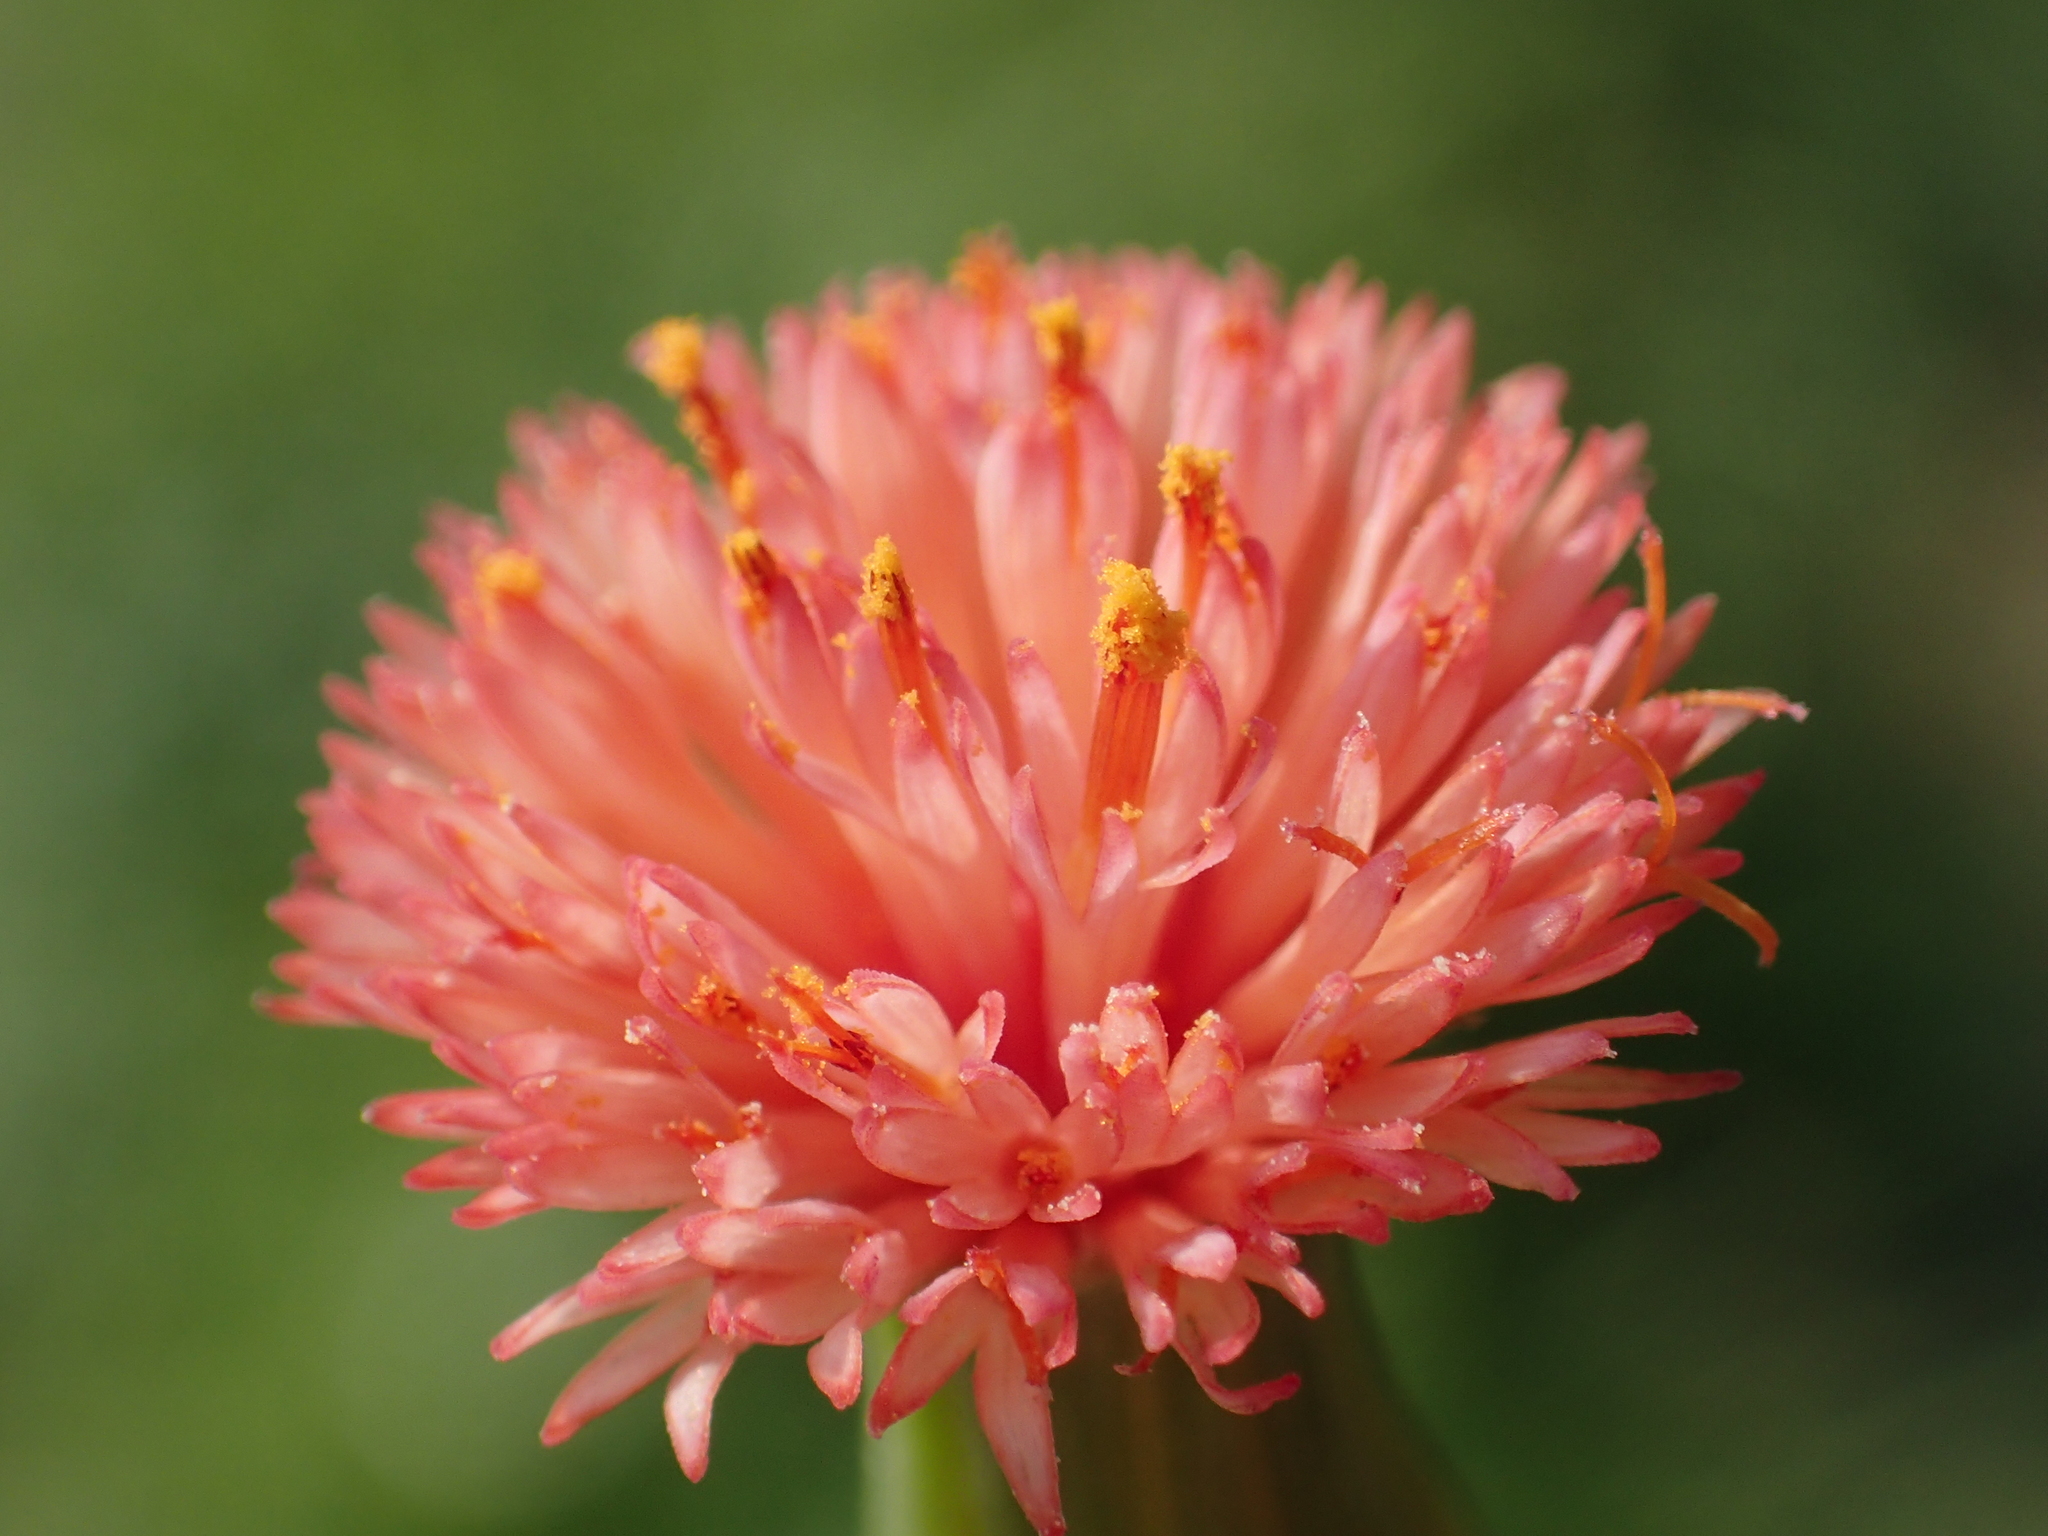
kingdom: Plantae
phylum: Tracheophyta
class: Magnoliopsida
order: Asterales
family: Asteraceae
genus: Emilia
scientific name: Emilia fosbergii
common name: Florida tasselflower
